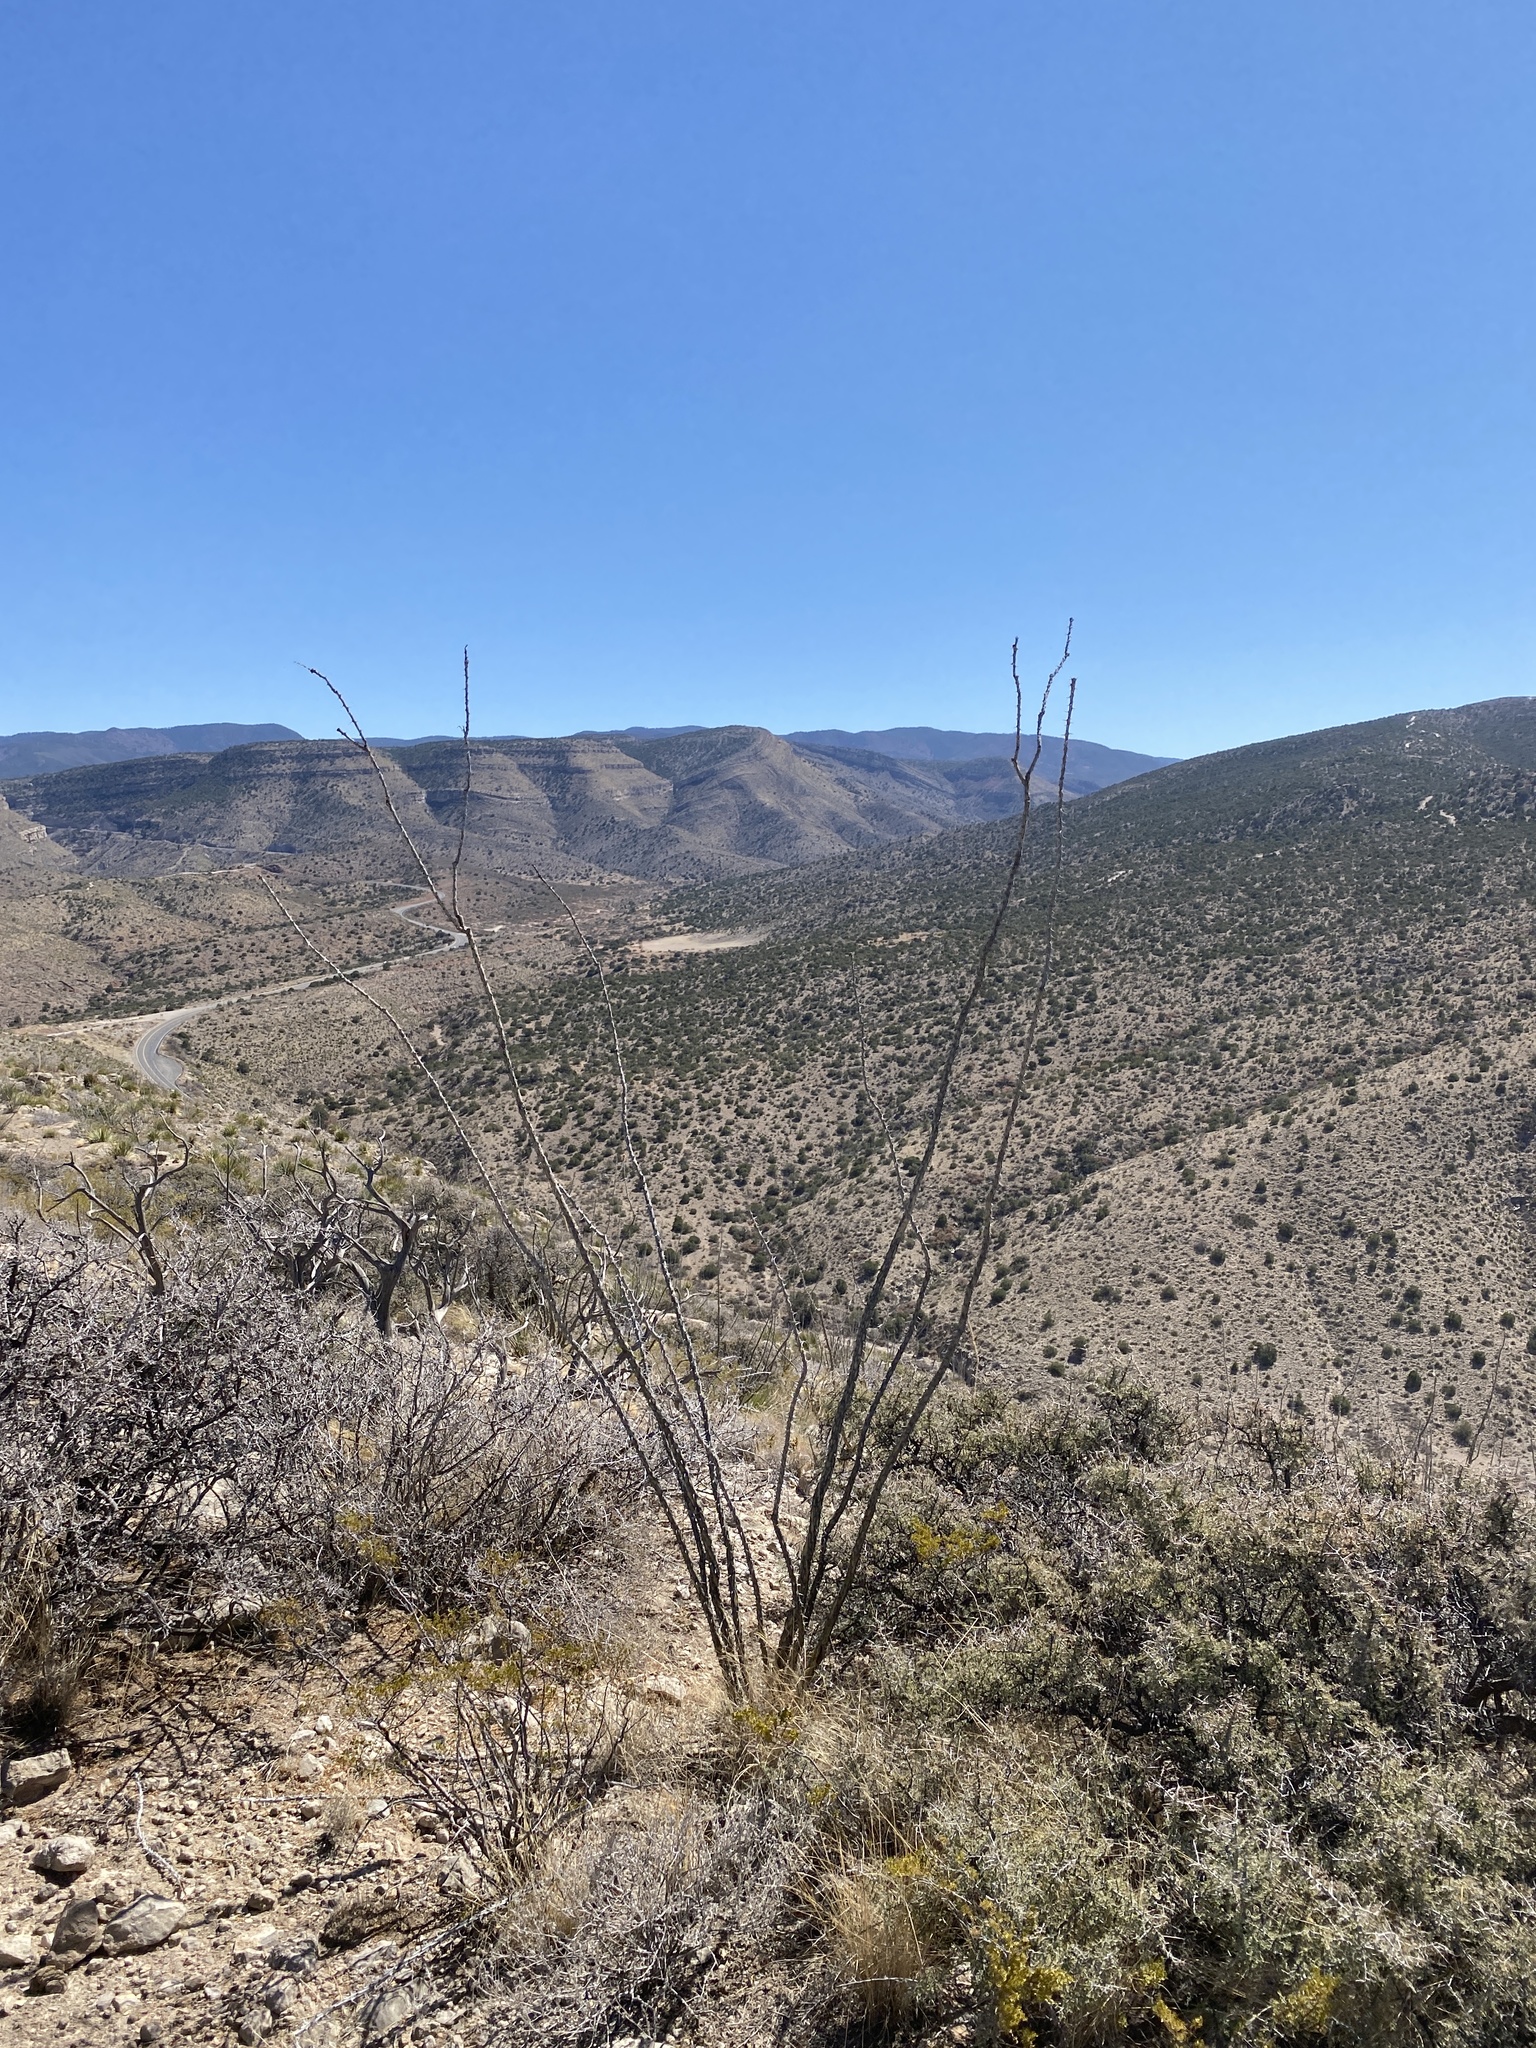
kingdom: Plantae
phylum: Tracheophyta
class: Magnoliopsida
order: Ericales
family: Fouquieriaceae
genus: Fouquieria
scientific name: Fouquieria splendens
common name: Vine-cactus
